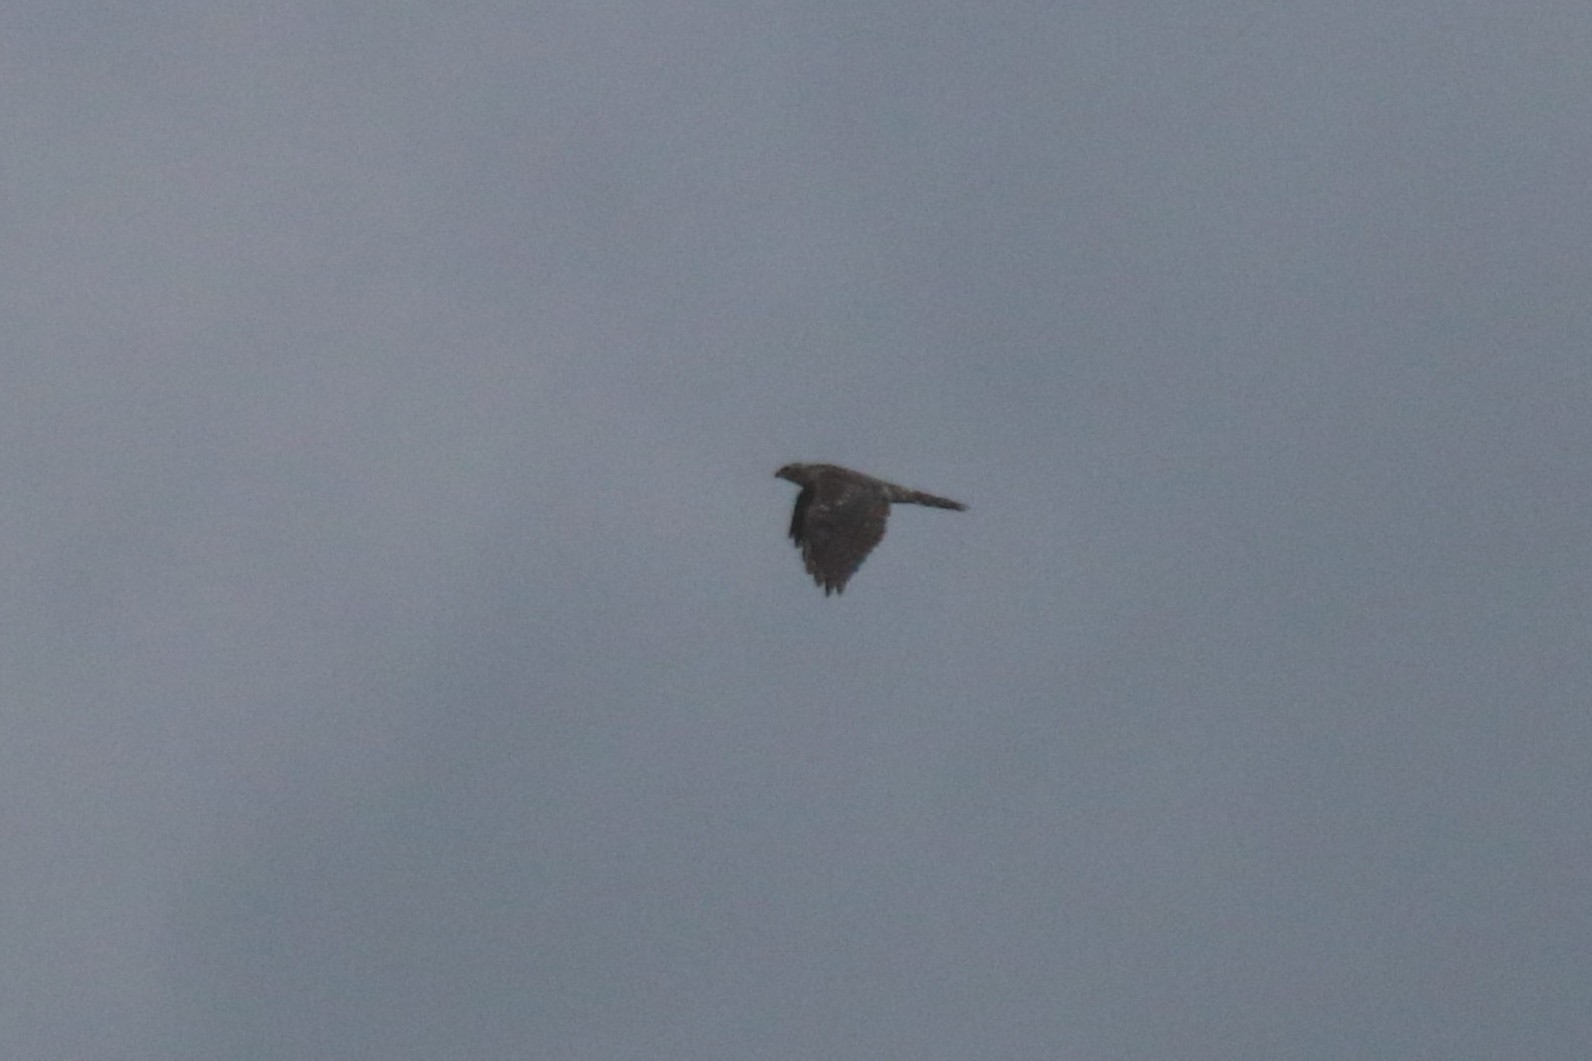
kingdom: Animalia
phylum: Chordata
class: Aves
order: Accipitriformes
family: Accipitridae
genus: Accipiter
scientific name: Accipiter nisus
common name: Eurasian sparrowhawk
